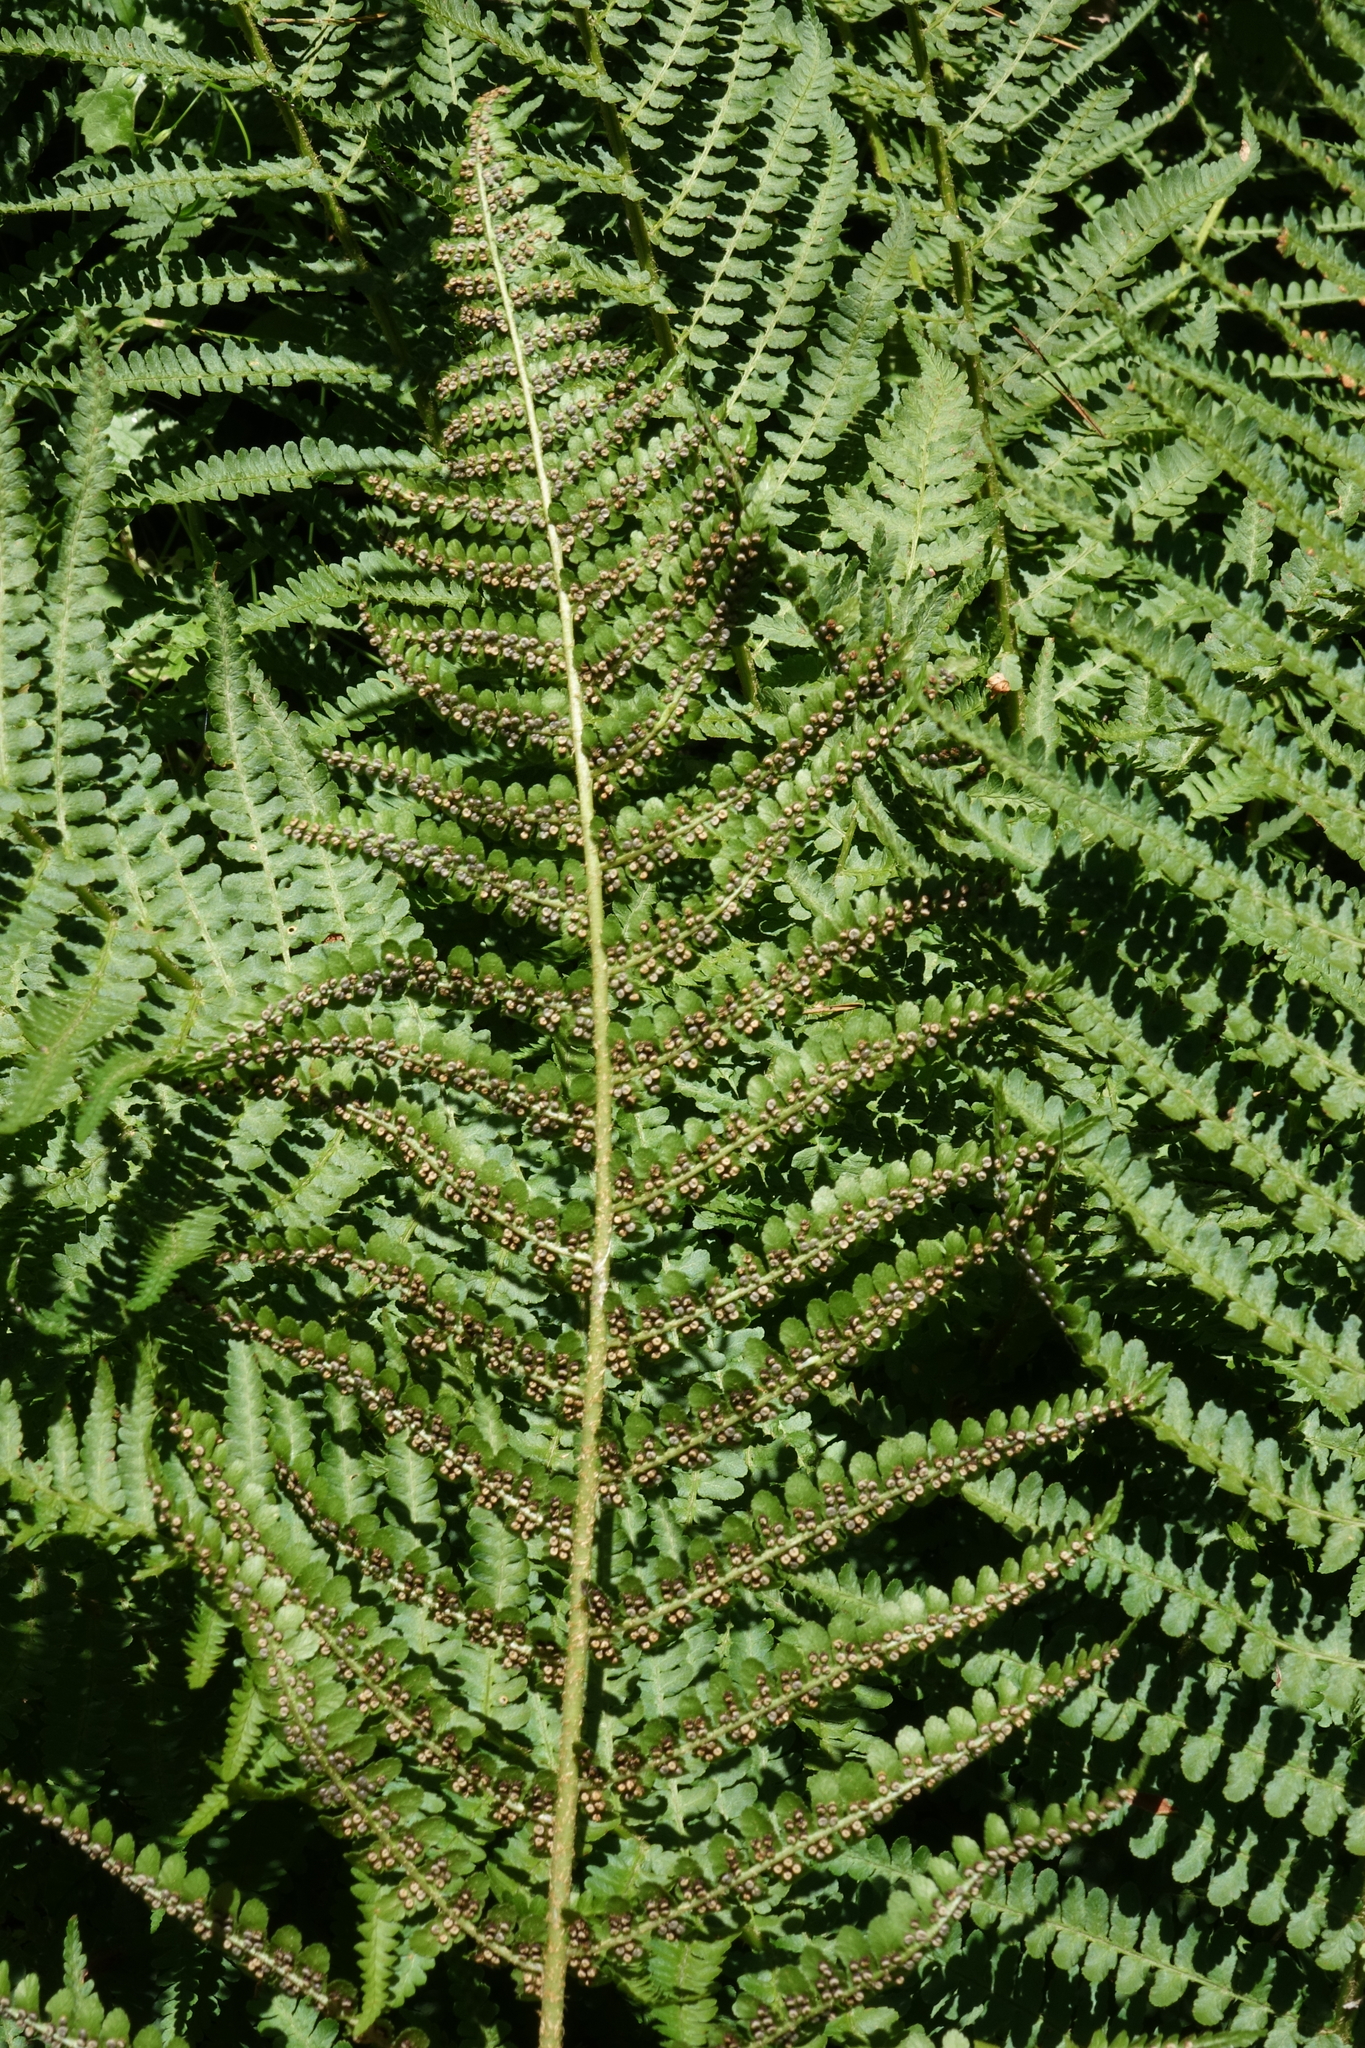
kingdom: Plantae
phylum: Tracheophyta
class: Polypodiopsida
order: Polypodiales
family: Dryopteridaceae
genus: Dryopteris
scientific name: Dryopteris filix-mas
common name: Male fern
